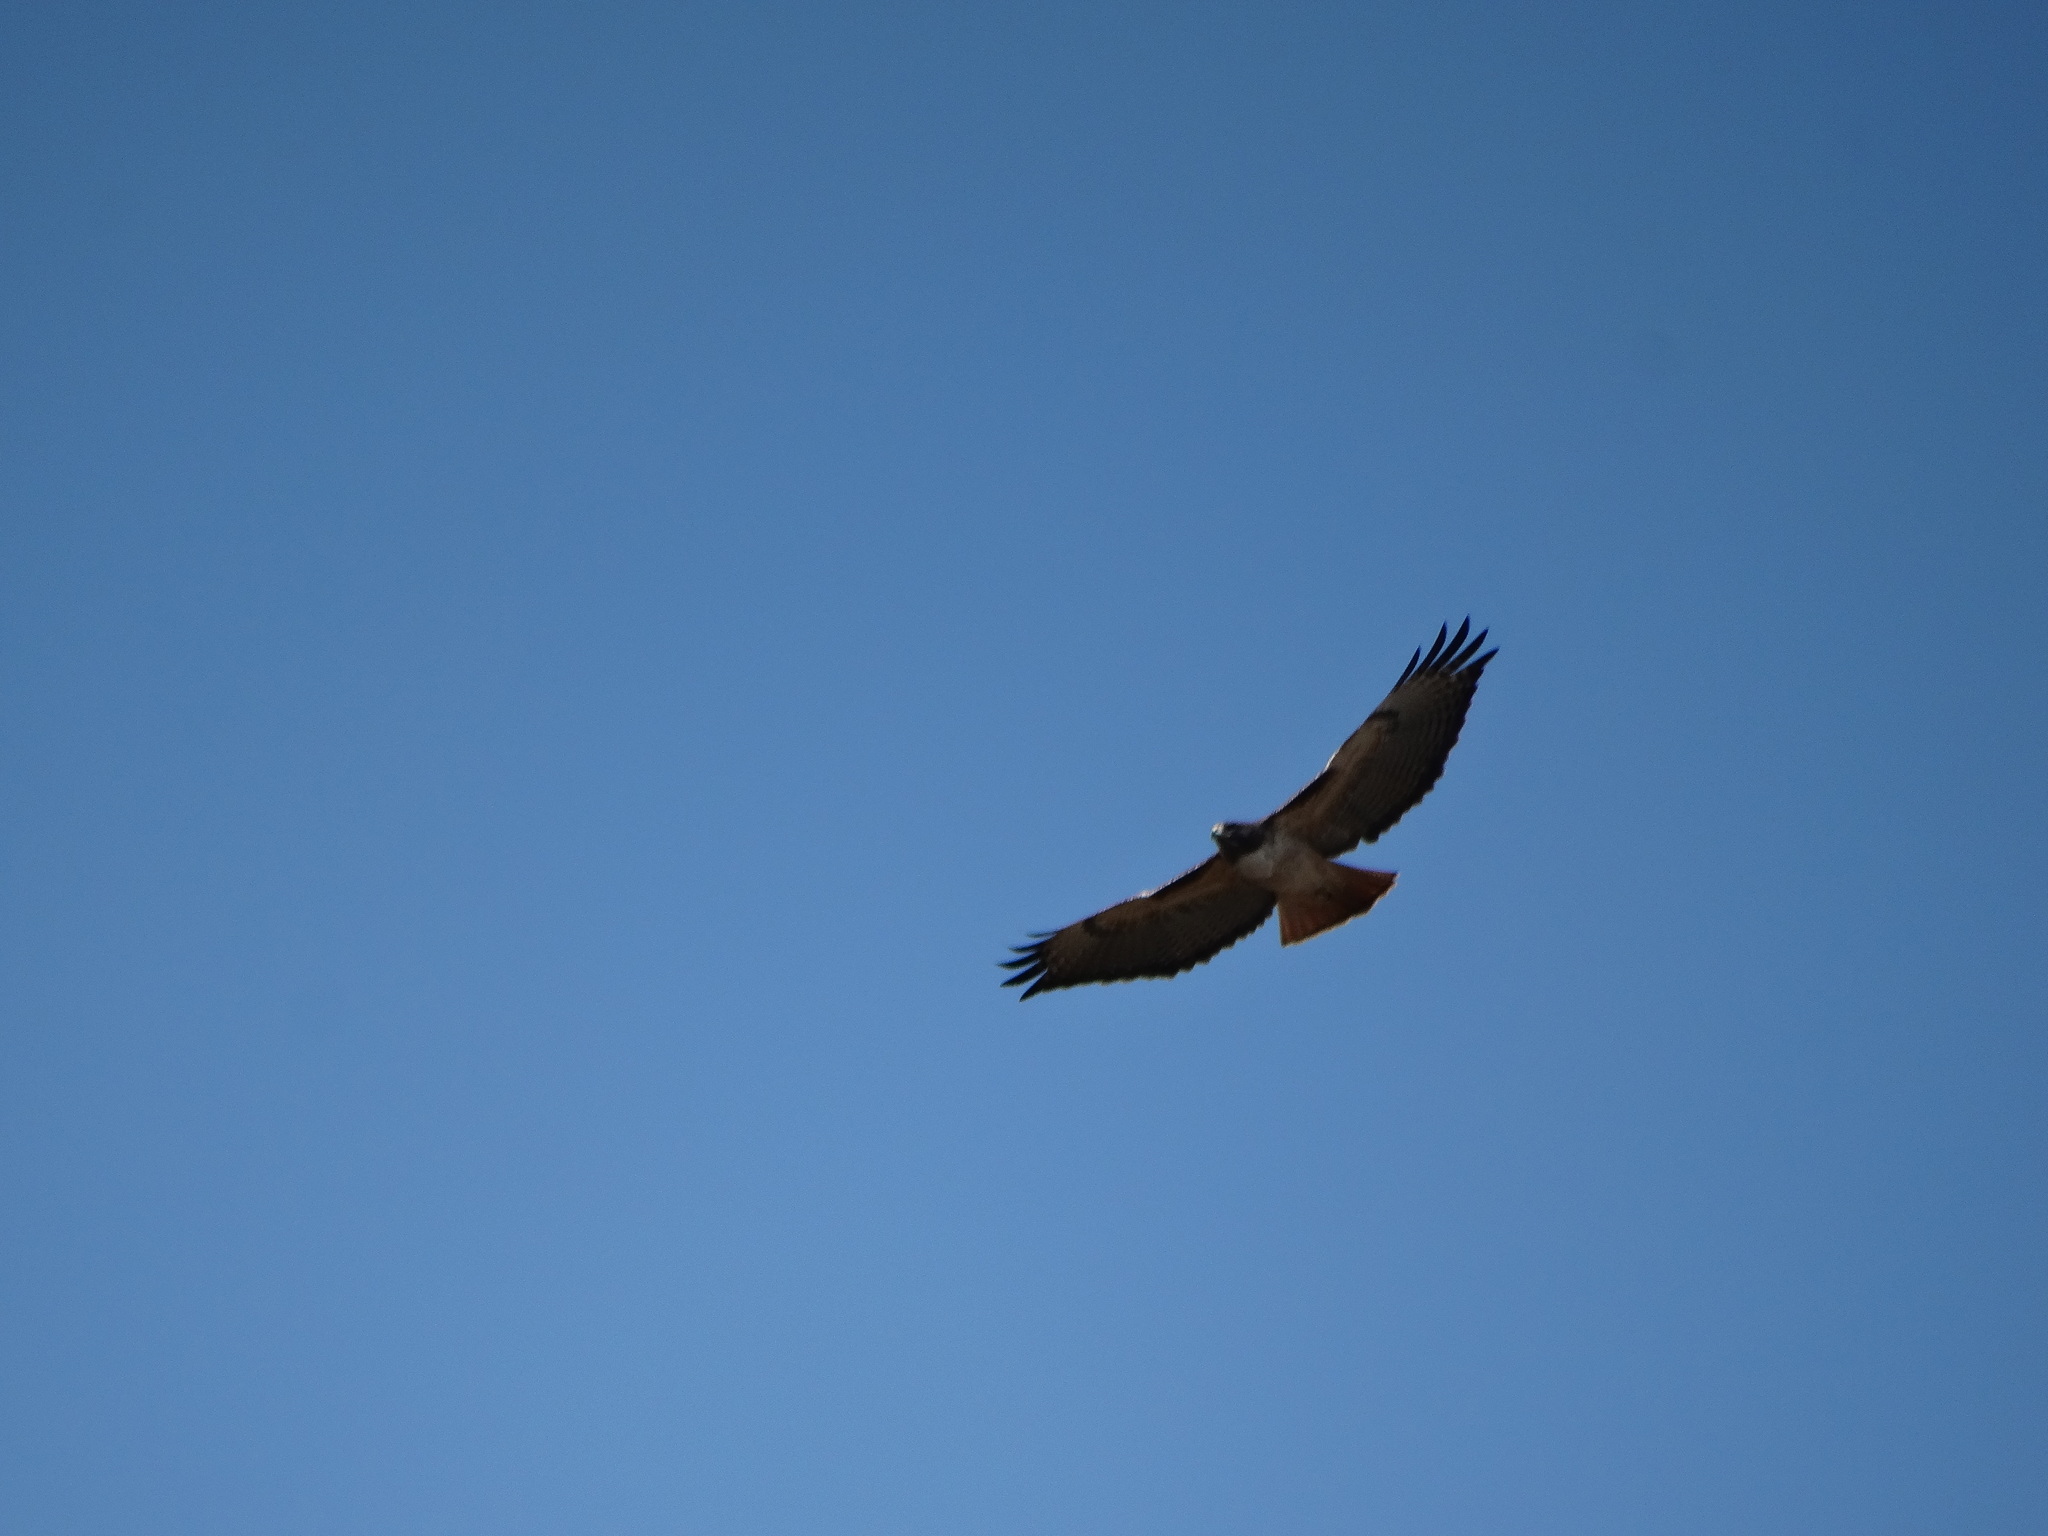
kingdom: Animalia
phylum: Chordata
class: Aves
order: Accipitriformes
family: Accipitridae
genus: Buteo
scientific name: Buteo jamaicensis
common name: Red-tailed hawk
